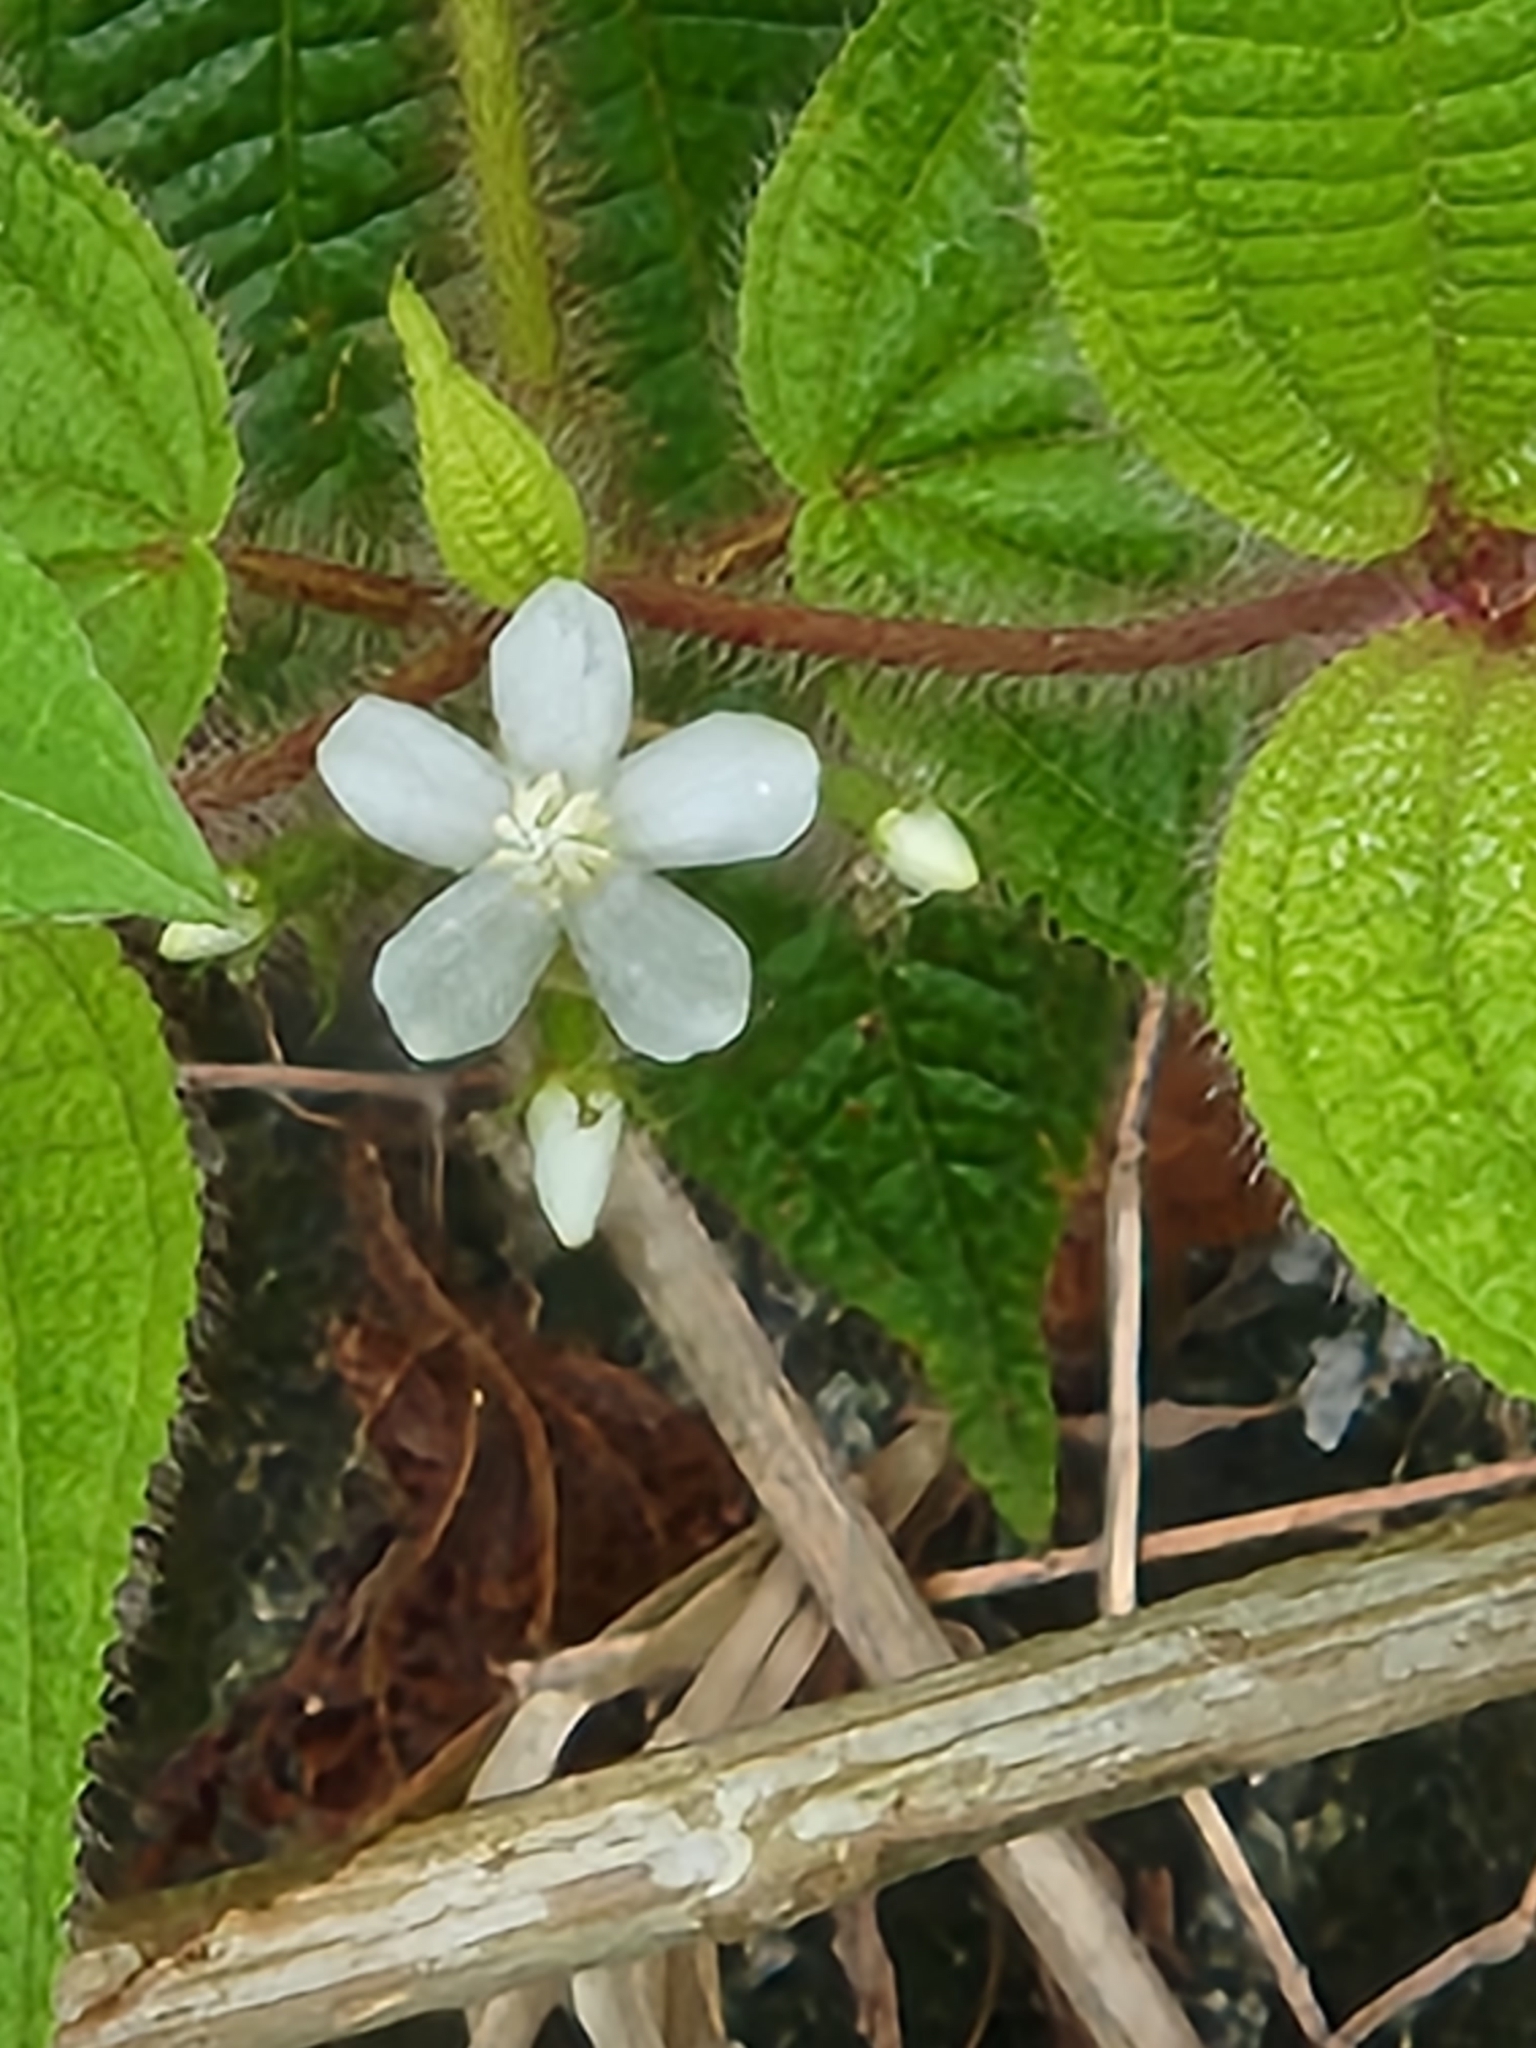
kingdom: Plantae
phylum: Tracheophyta
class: Magnoliopsida
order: Myrtales
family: Melastomataceae
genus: Miconia
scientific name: Miconia crenata
